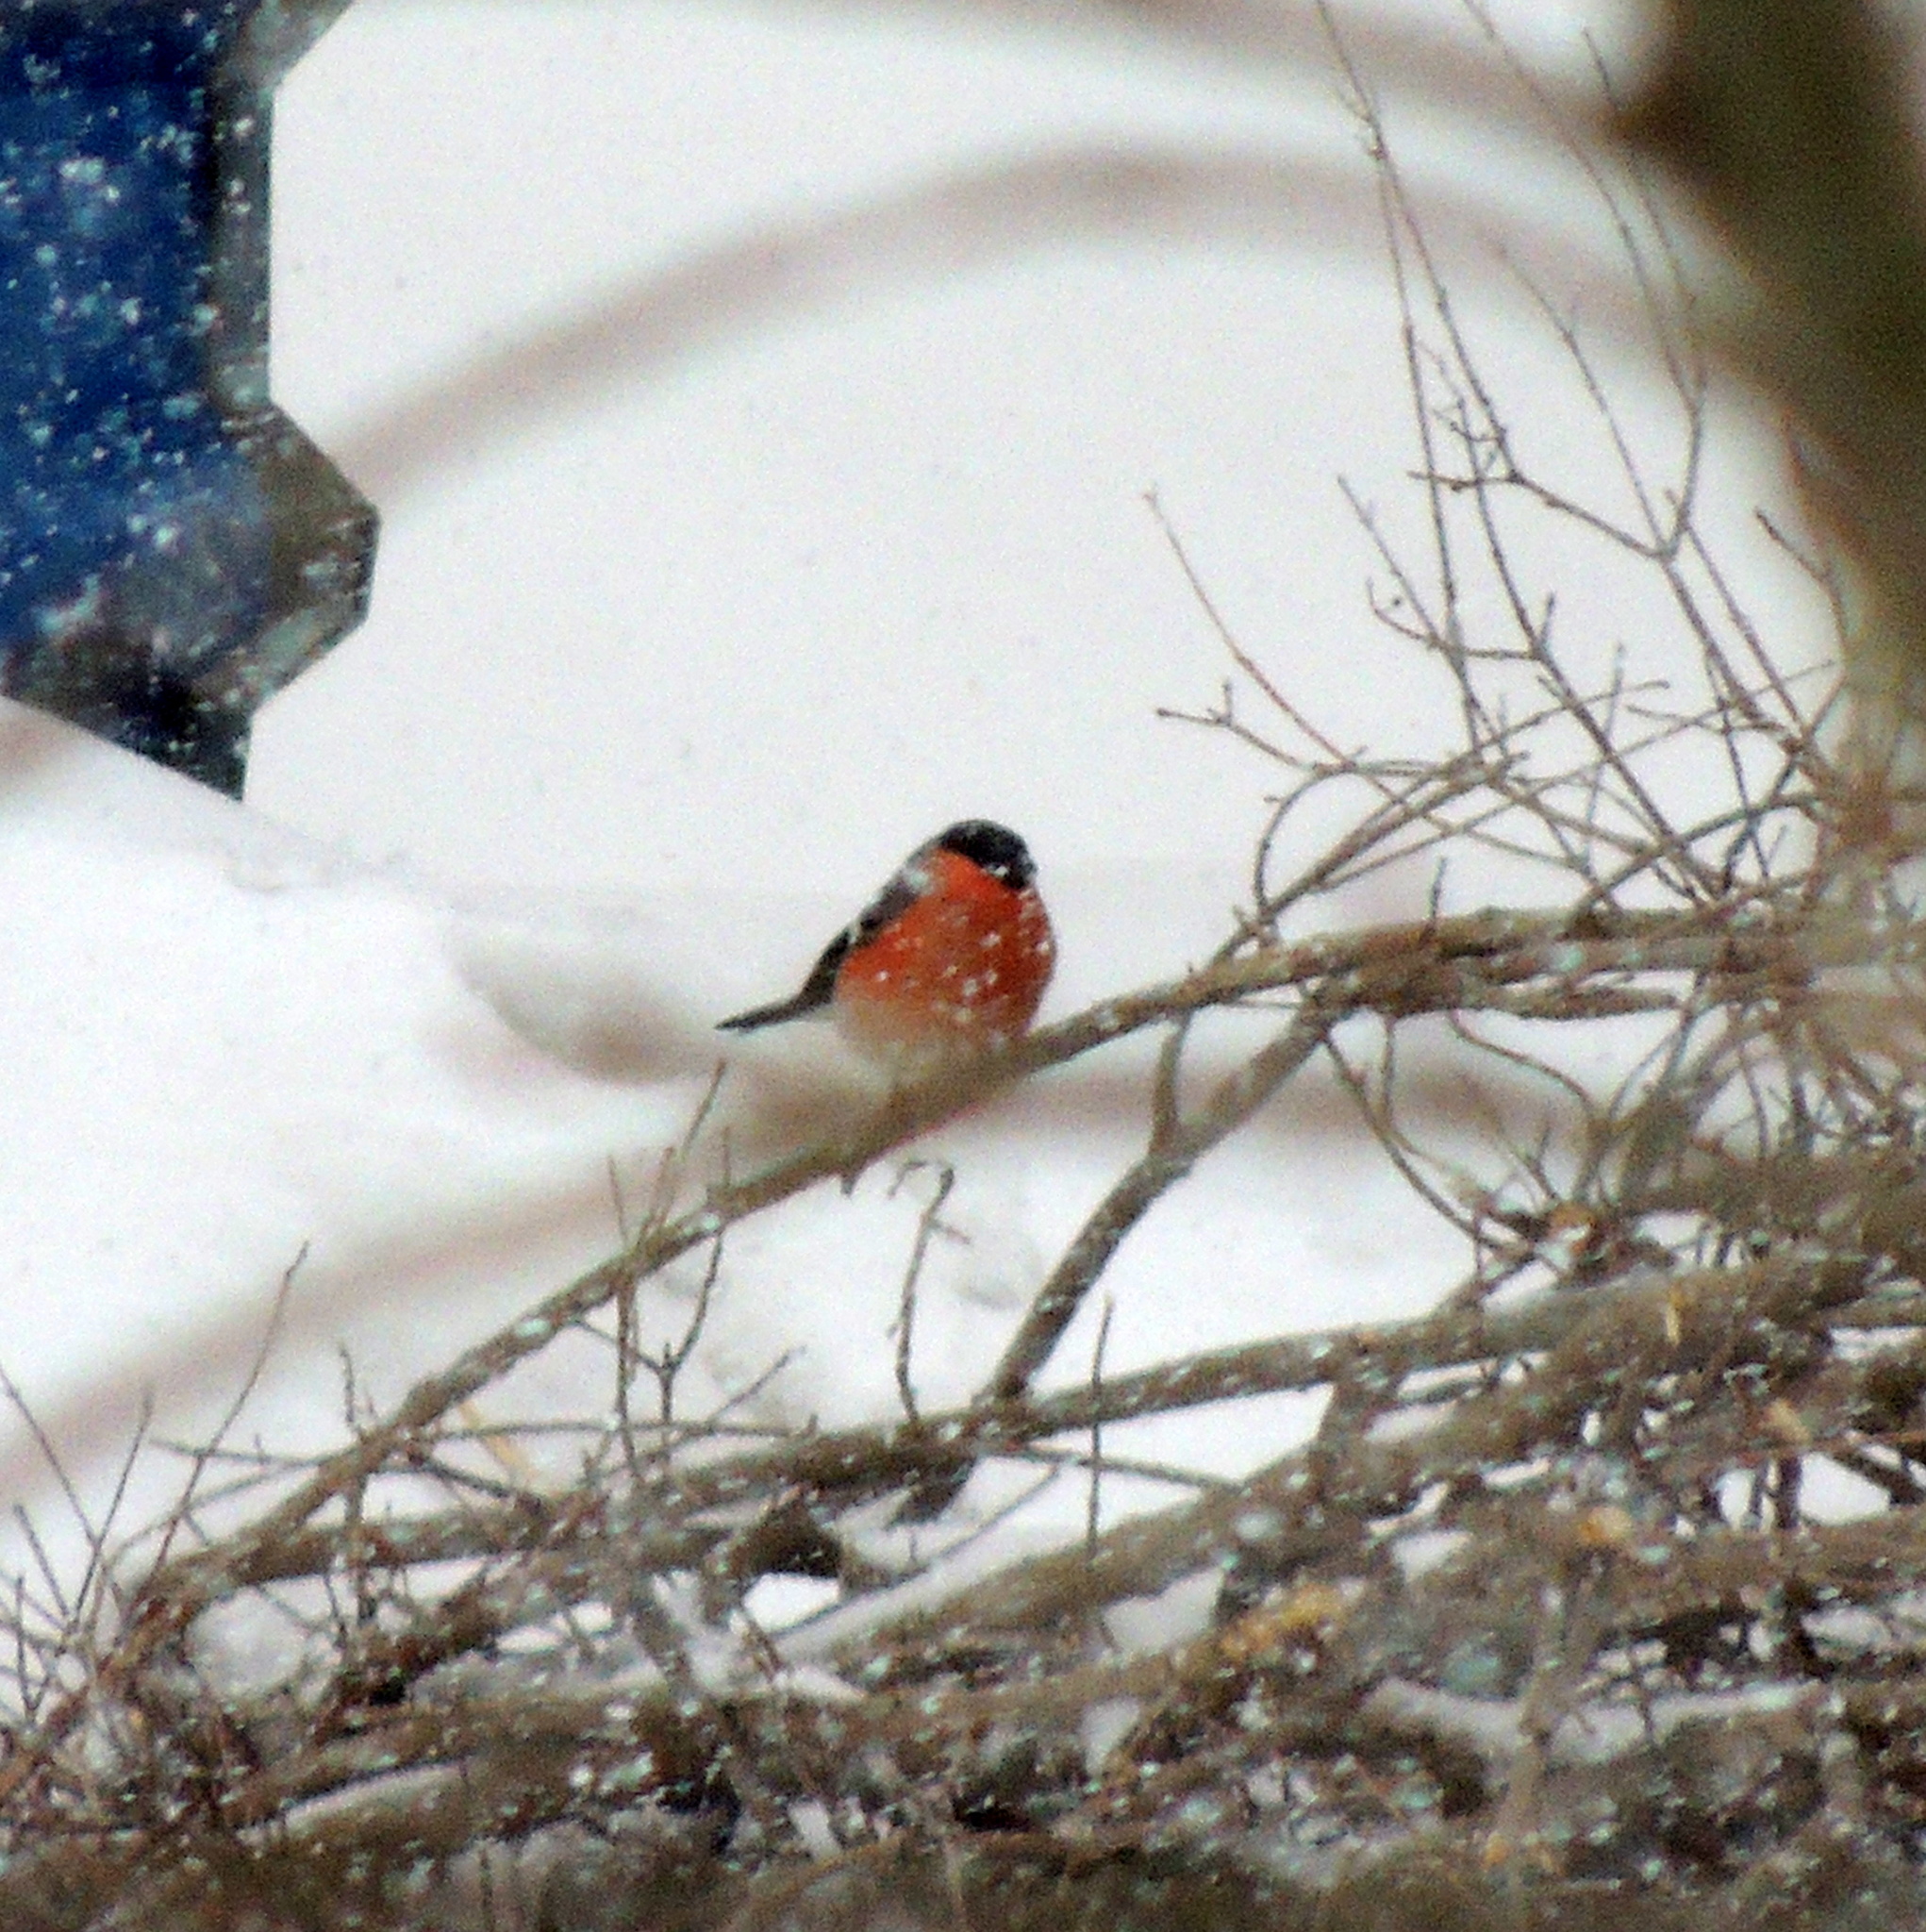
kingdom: Animalia
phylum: Chordata
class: Aves
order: Passeriformes
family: Fringillidae
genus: Pyrrhula
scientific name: Pyrrhula pyrrhula
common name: Eurasian bullfinch
